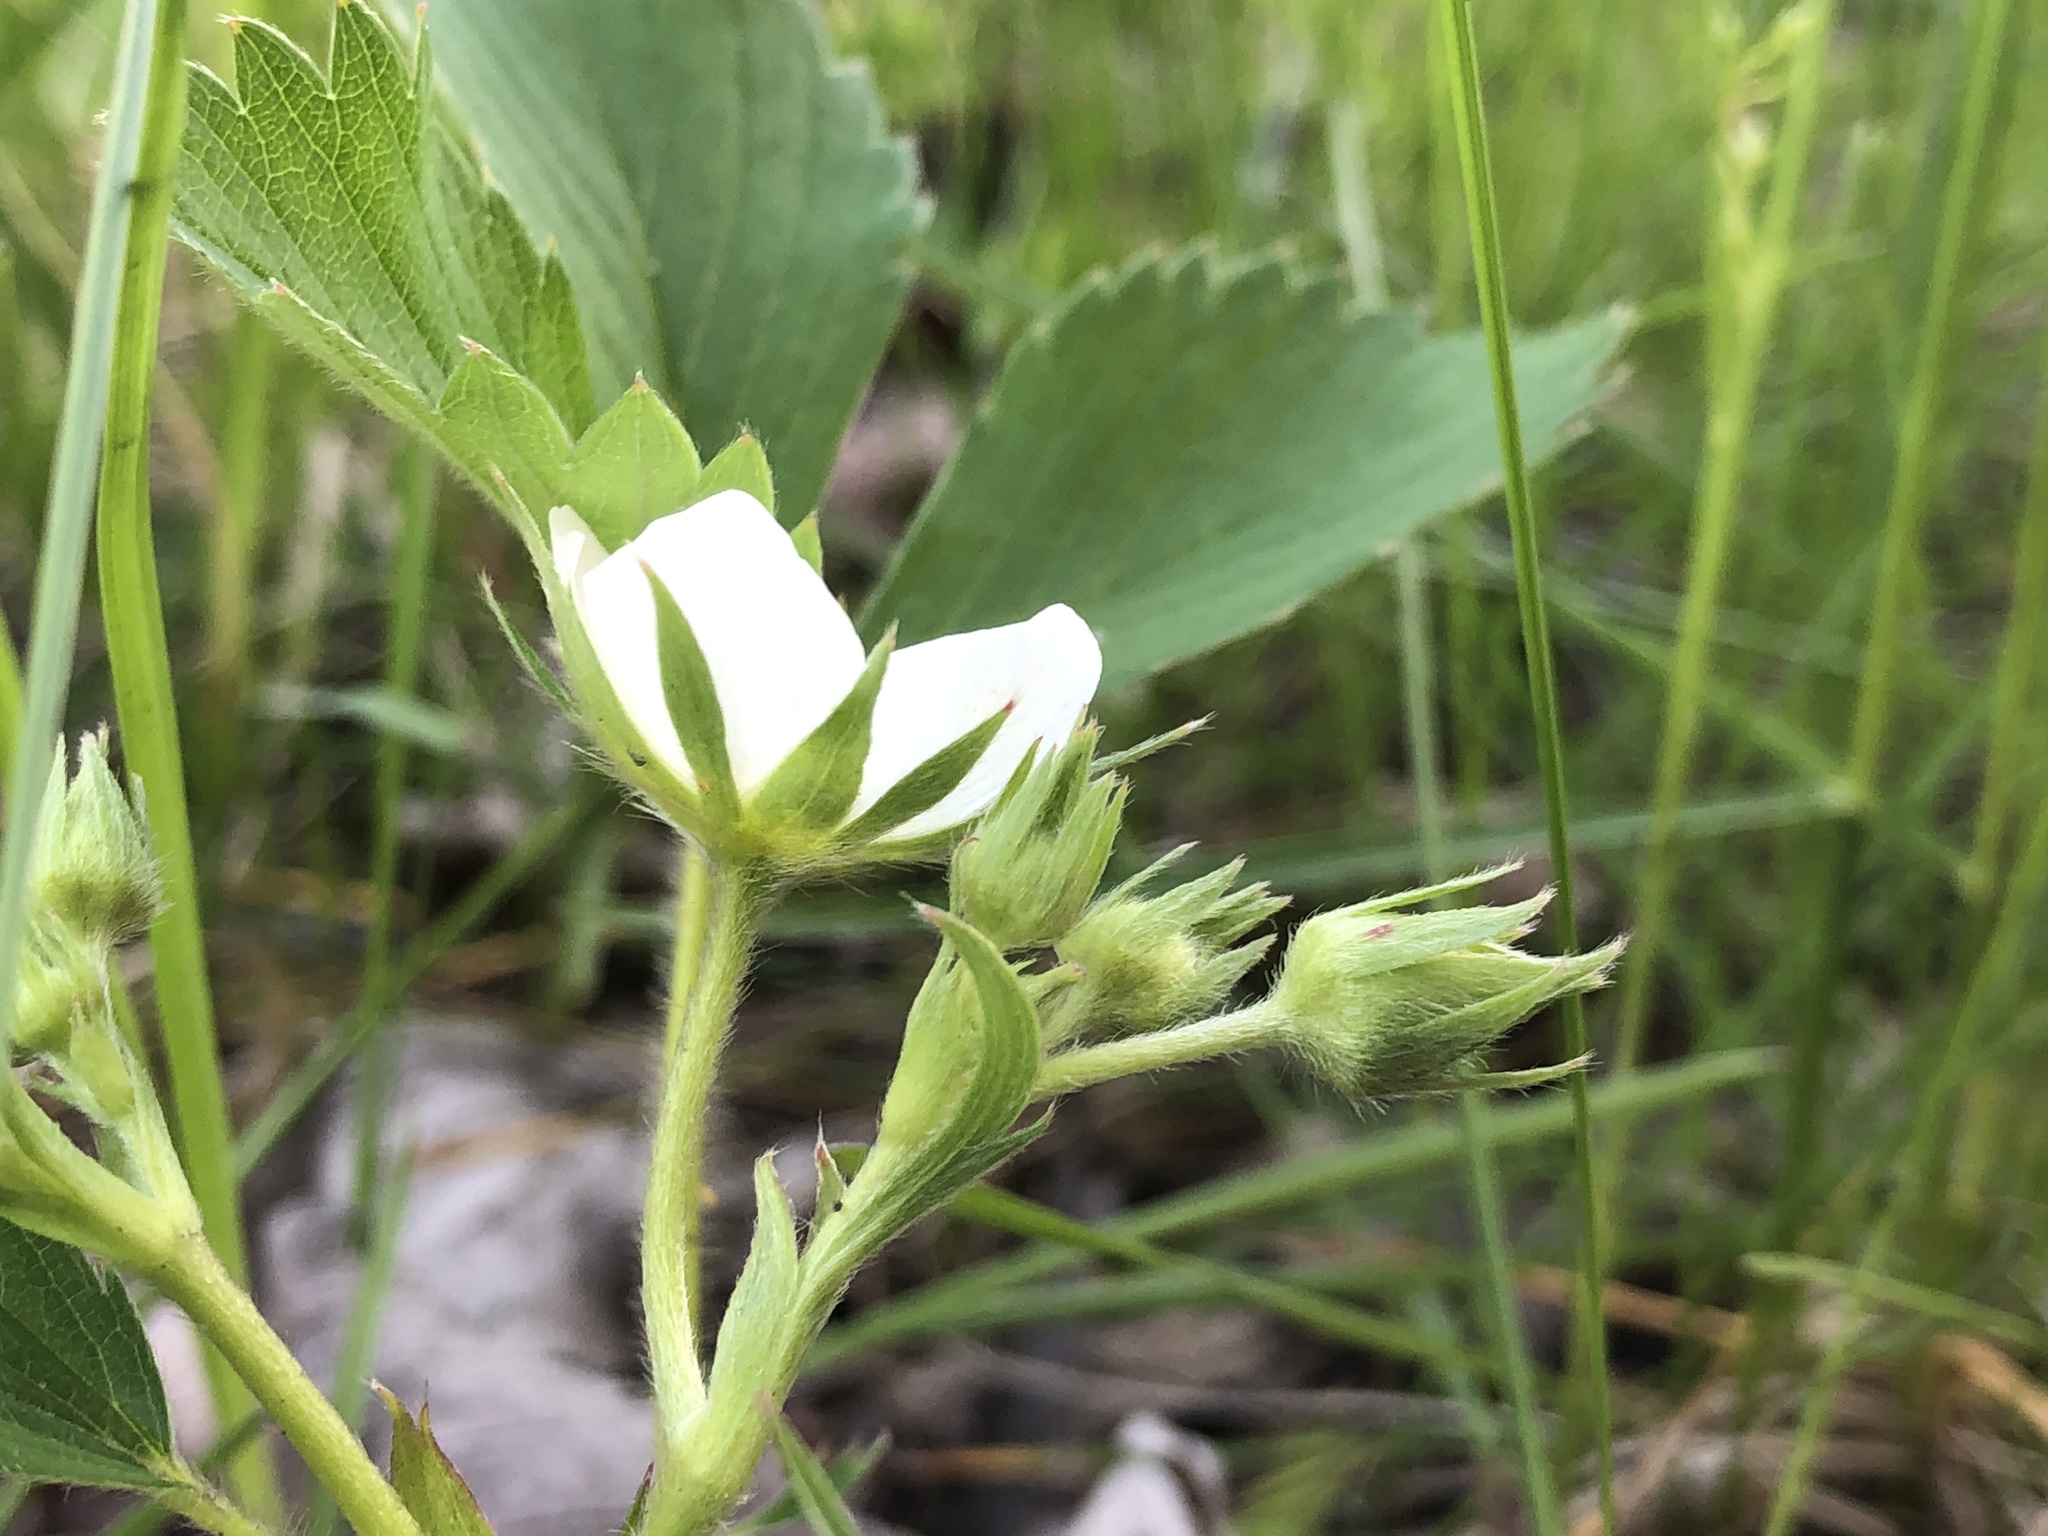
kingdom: Plantae
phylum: Tracheophyta
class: Magnoliopsida
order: Rosales
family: Rosaceae
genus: Fragaria
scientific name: Fragaria virginiana
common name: Thickleaved wild strawberry
